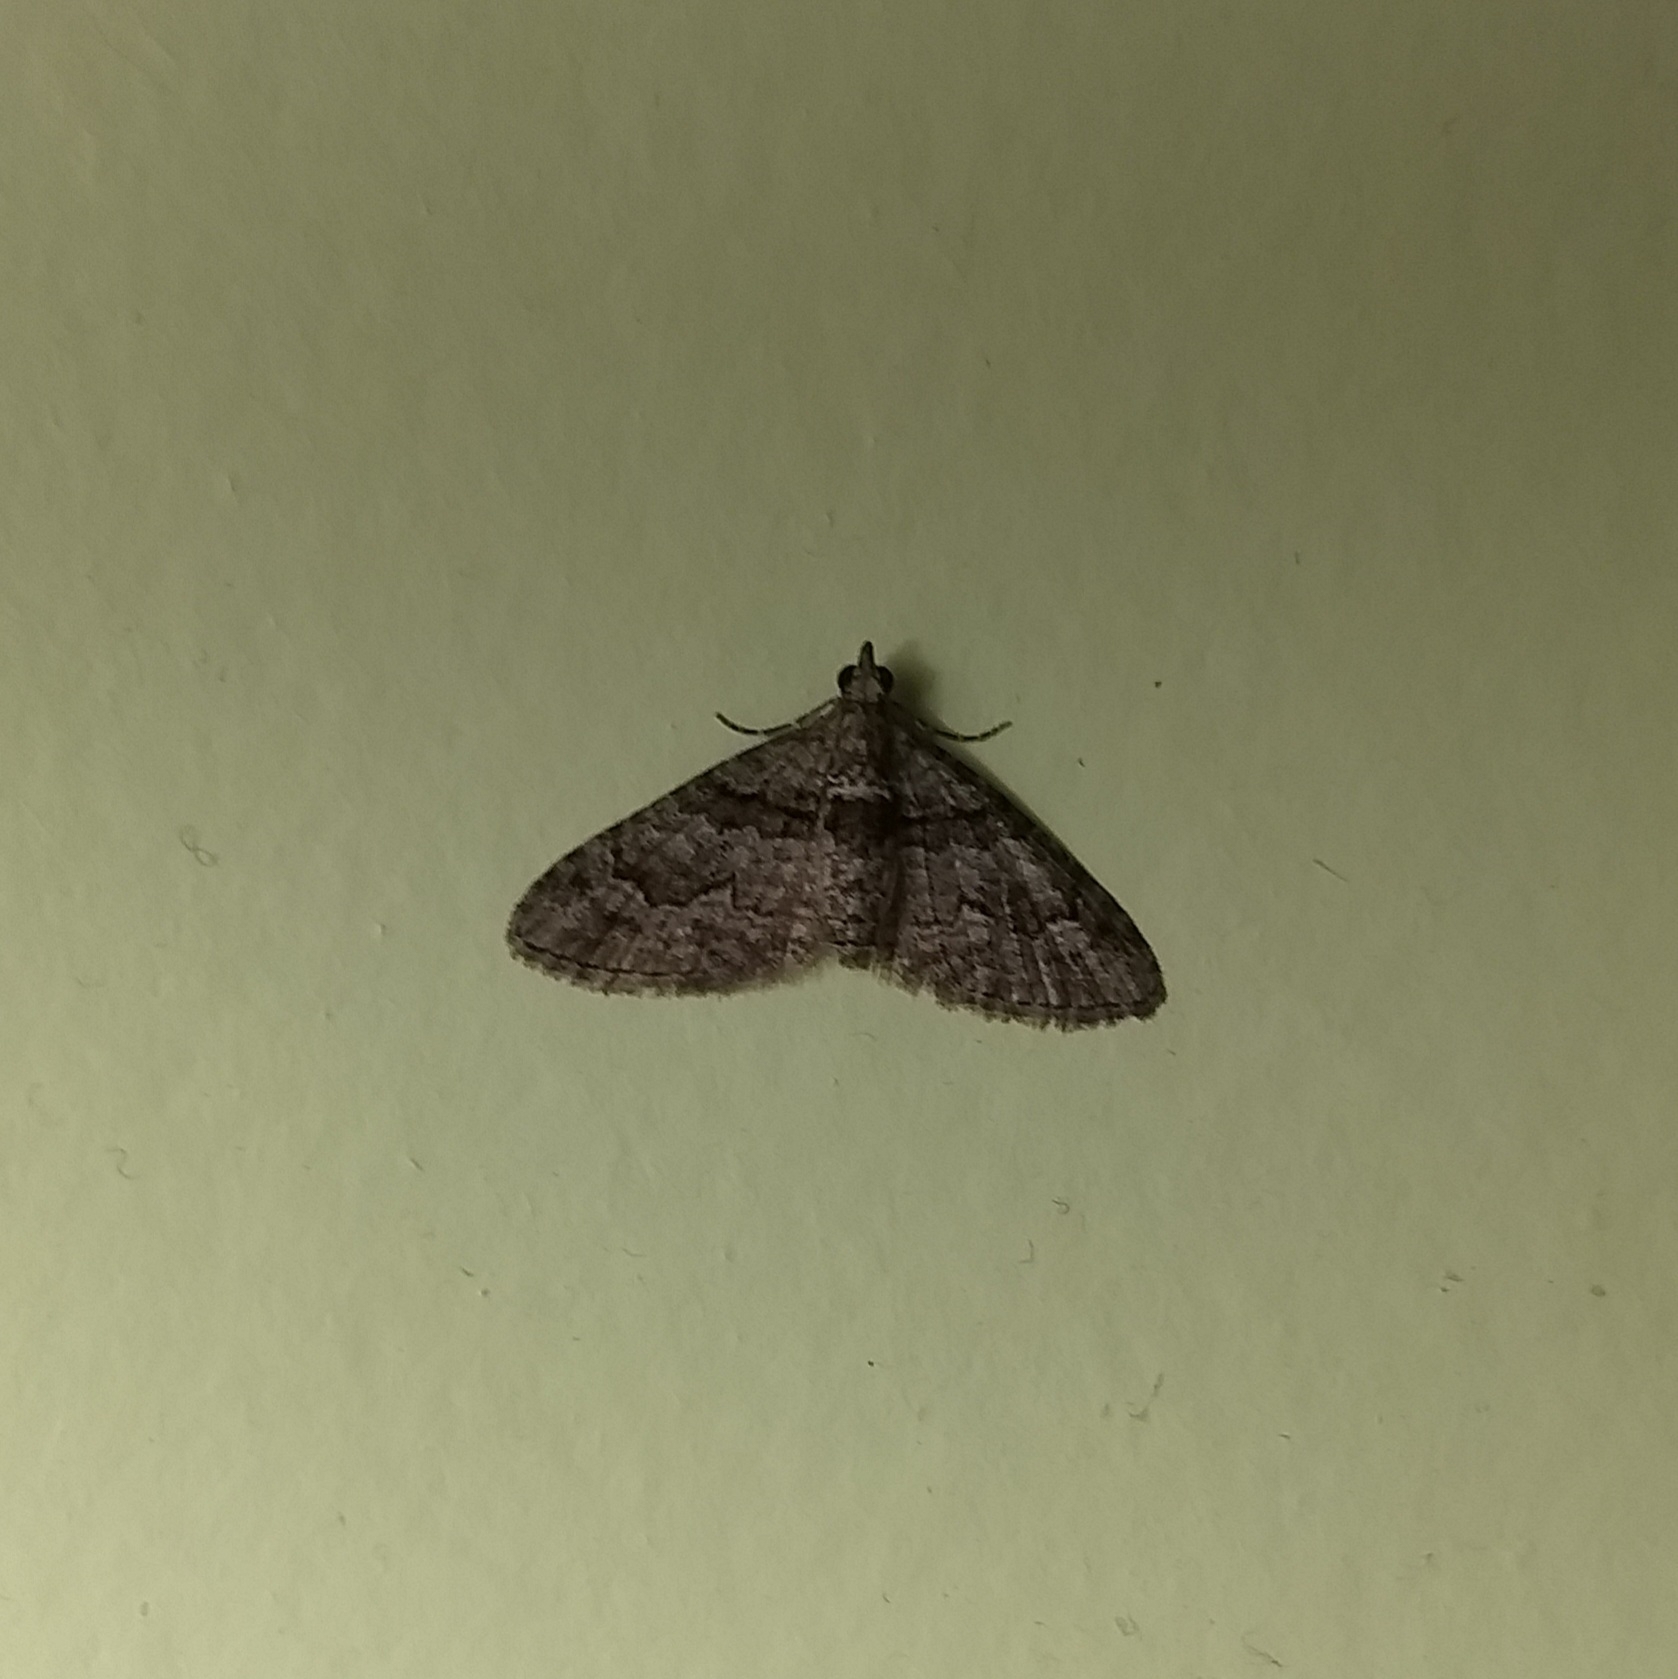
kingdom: Animalia
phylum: Arthropoda
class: Insecta
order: Lepidoptera
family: Geometridae
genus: Phrissogonus
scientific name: Phrissogonus laticostata
